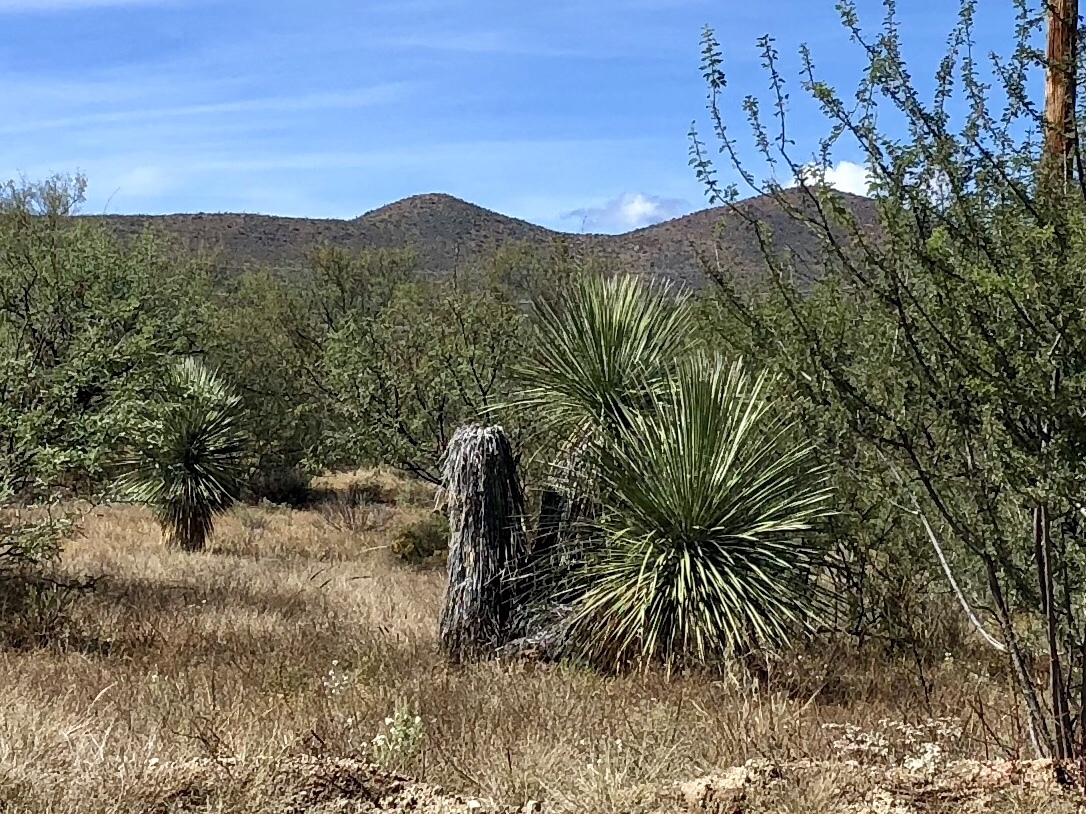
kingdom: Plantae
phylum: Tracheophyta
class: Liliopsida
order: Asparagales
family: Asparagaceae
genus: Yucca
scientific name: Yucca elata
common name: Palmella
